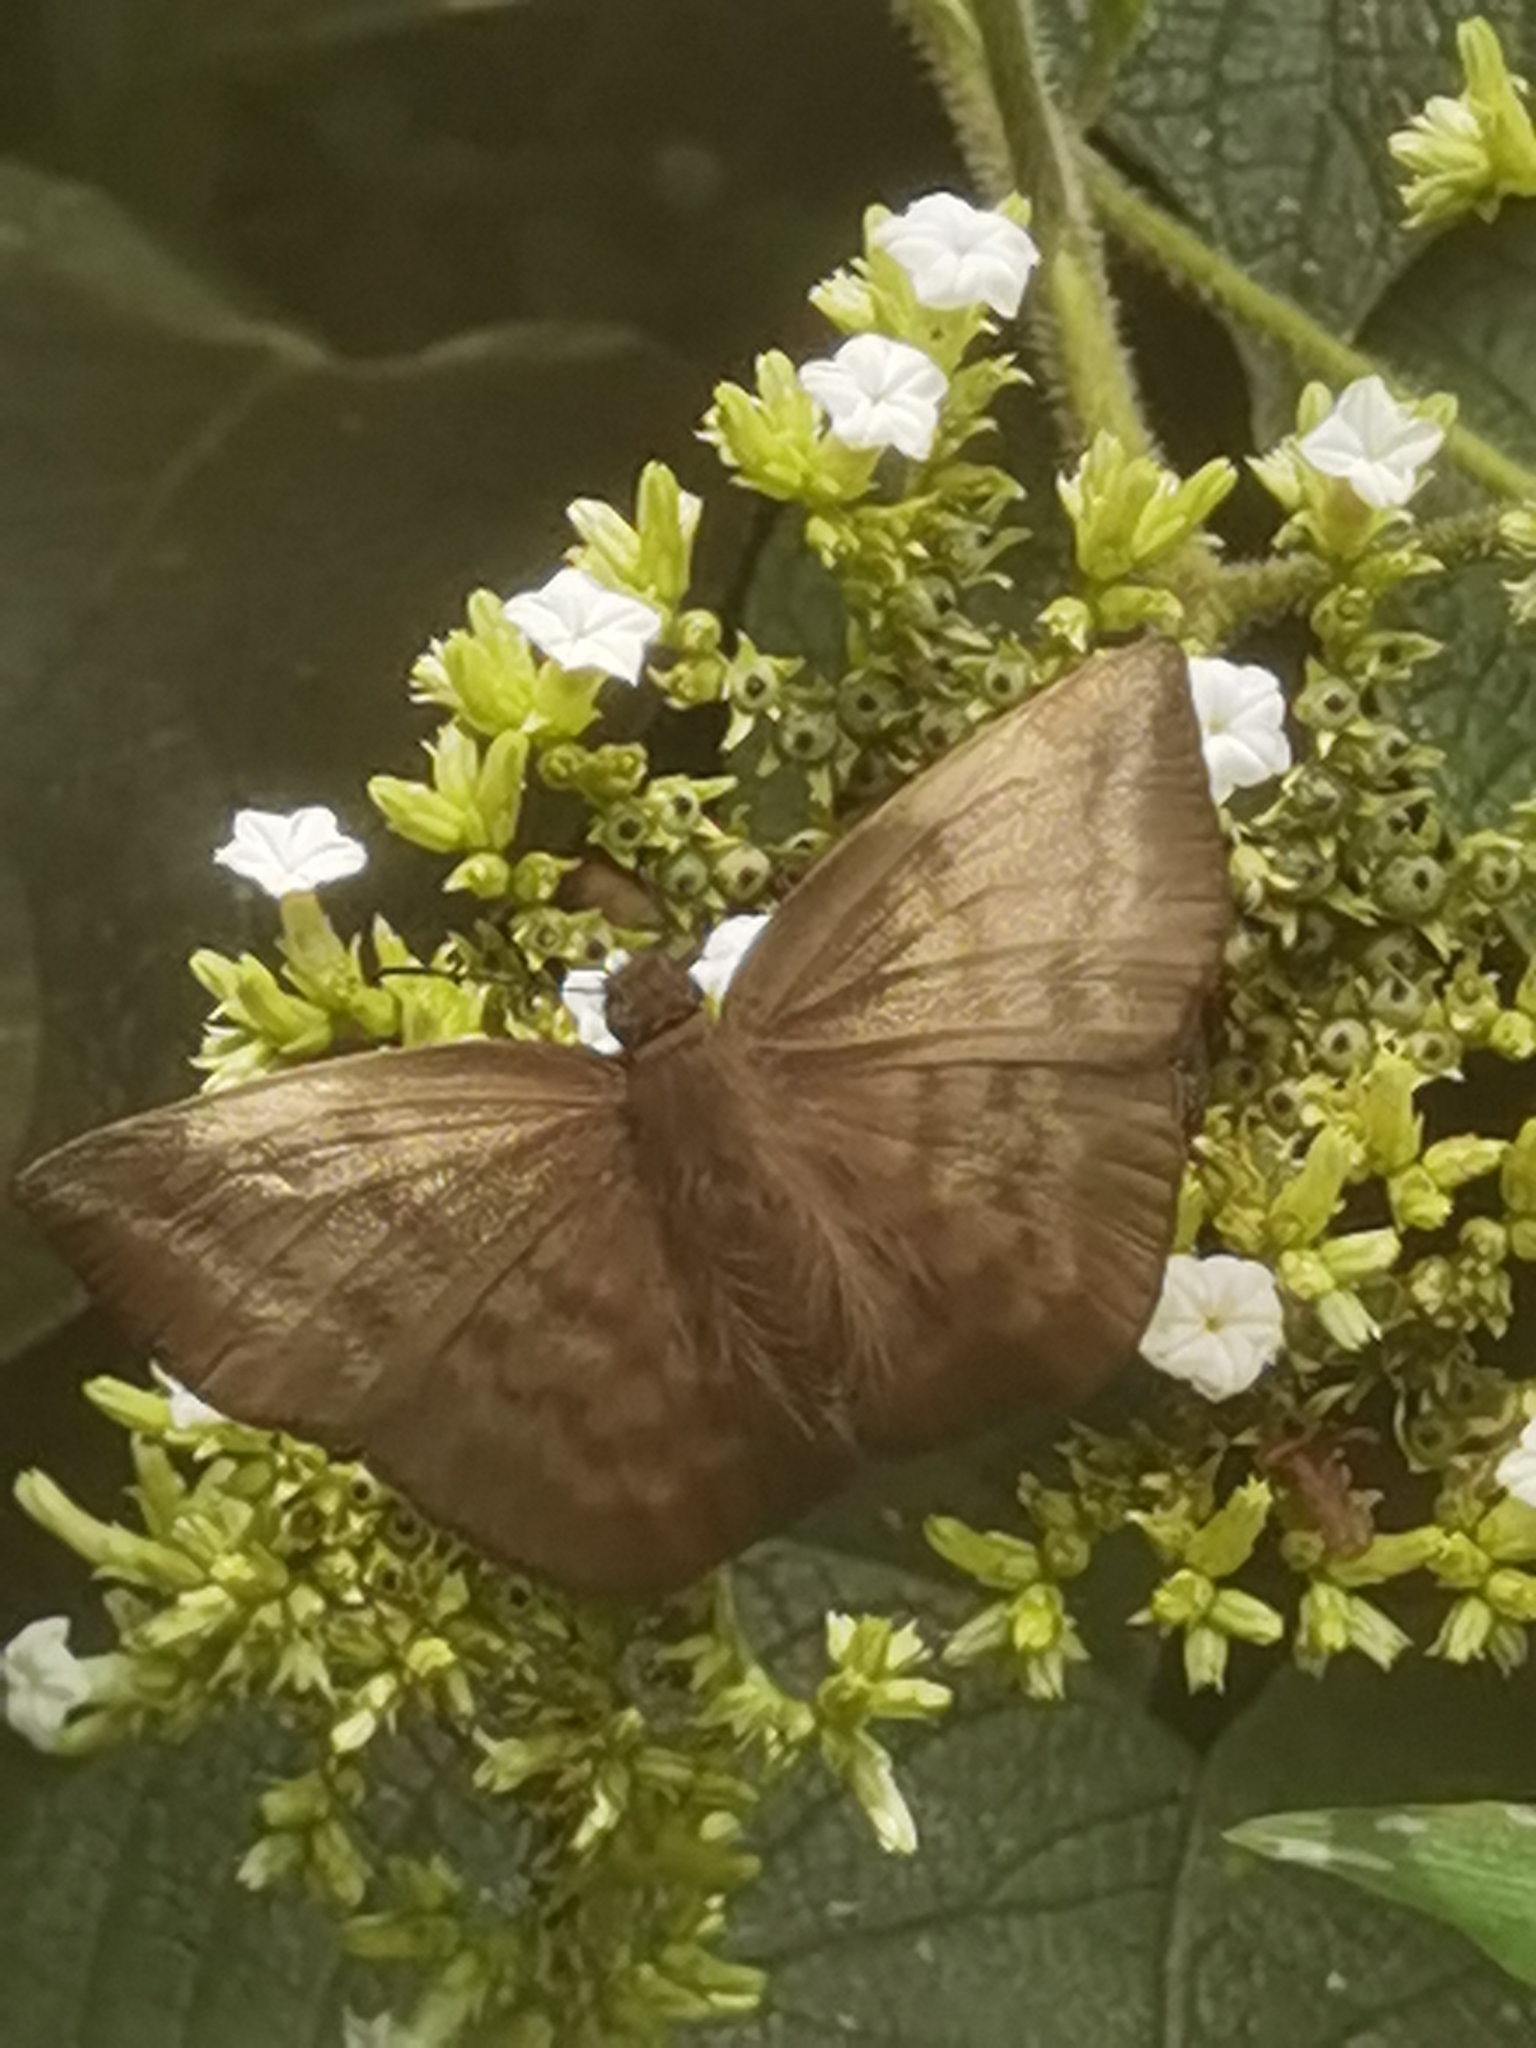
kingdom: Animalia
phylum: Arthropoda
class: Insecta
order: Lepidoptera
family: Hesperiidae
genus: Achlyodes
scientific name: Achlyodes pallida
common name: Pale sicklewing
